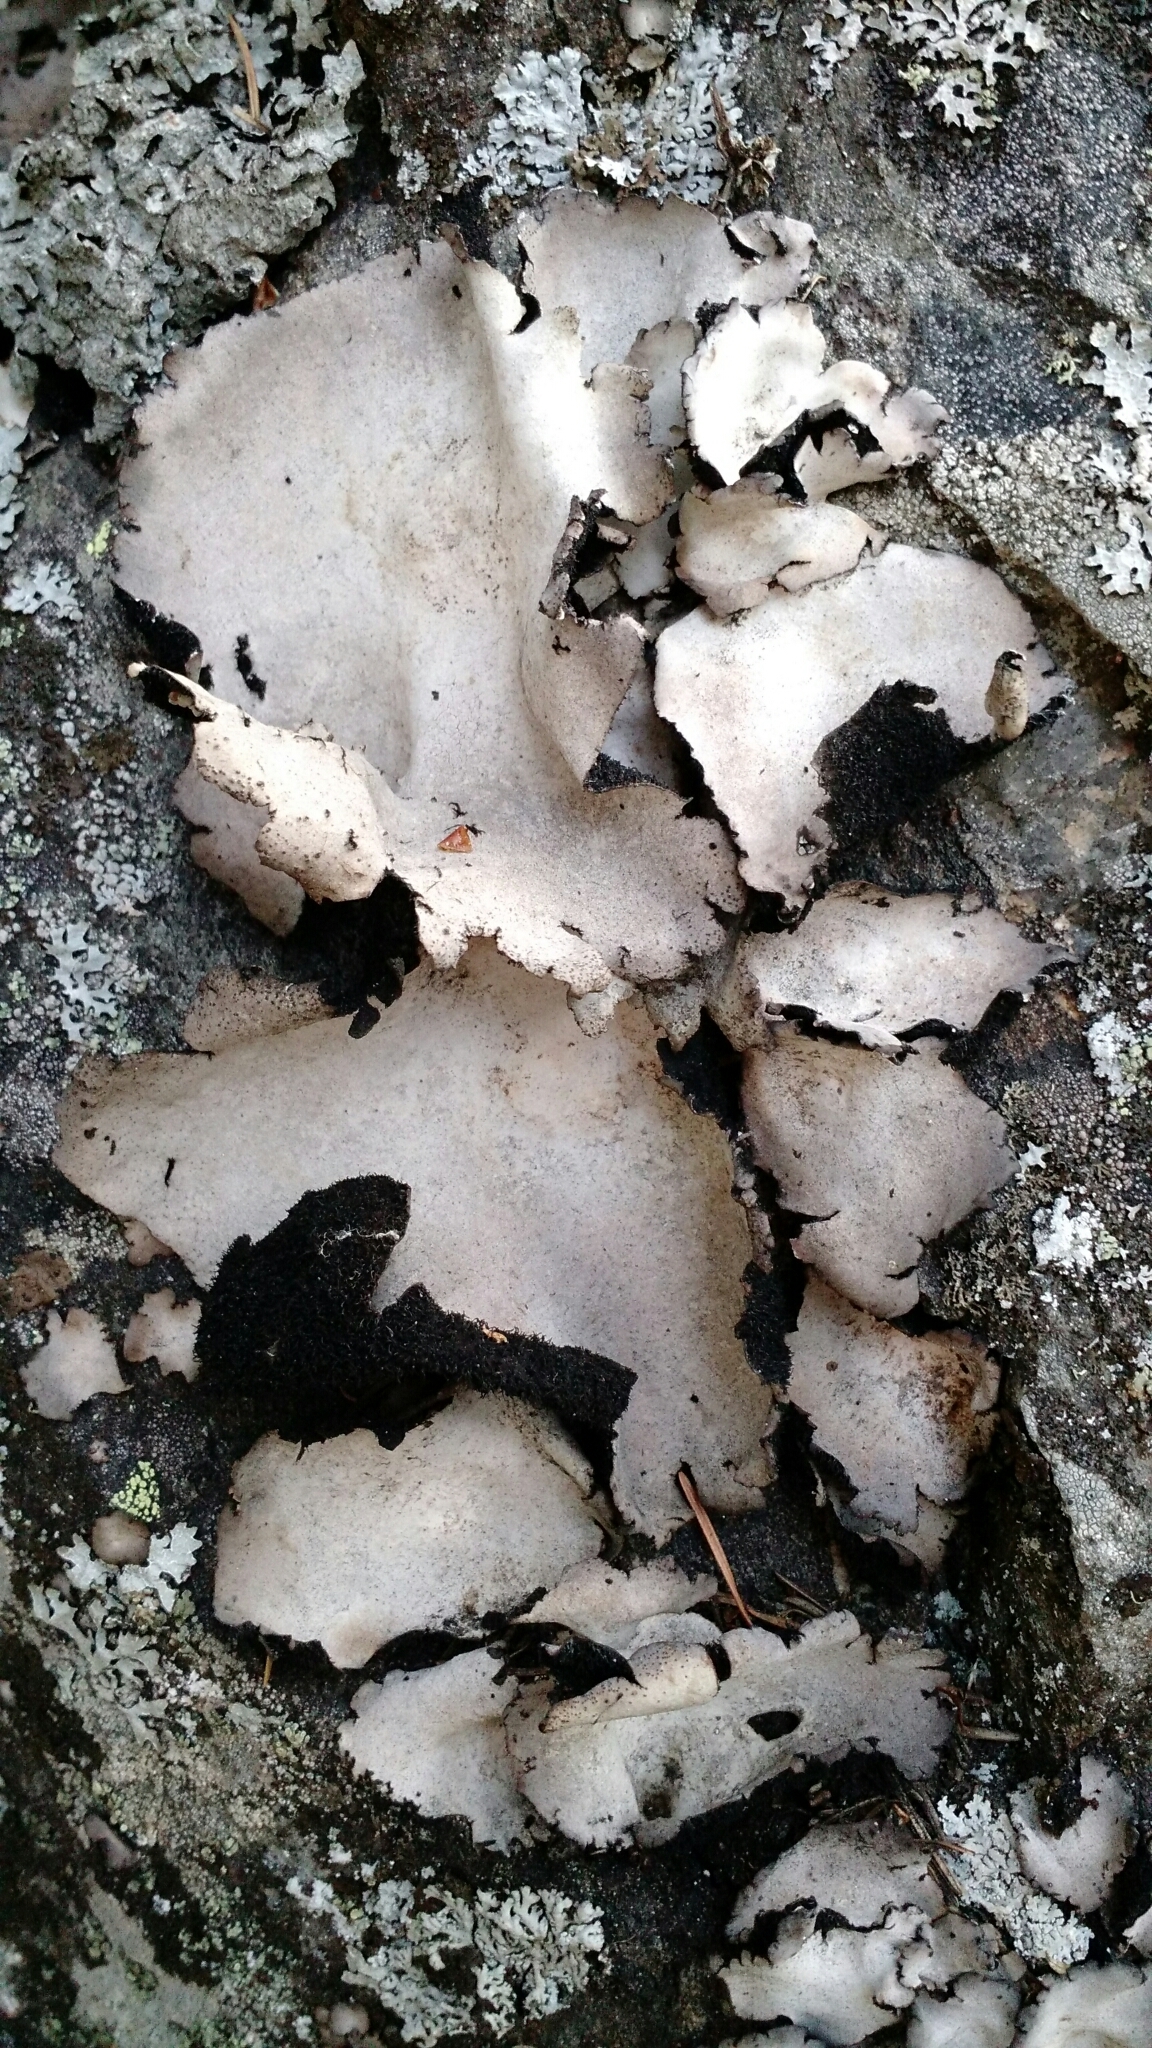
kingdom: Fungi
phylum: Ascomycota
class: Lecanoromycetes
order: Umbilicariales
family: Umbilicariaceae
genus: Umbilicaria
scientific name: Umbilicaria americana
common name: Frosted rock tripe
